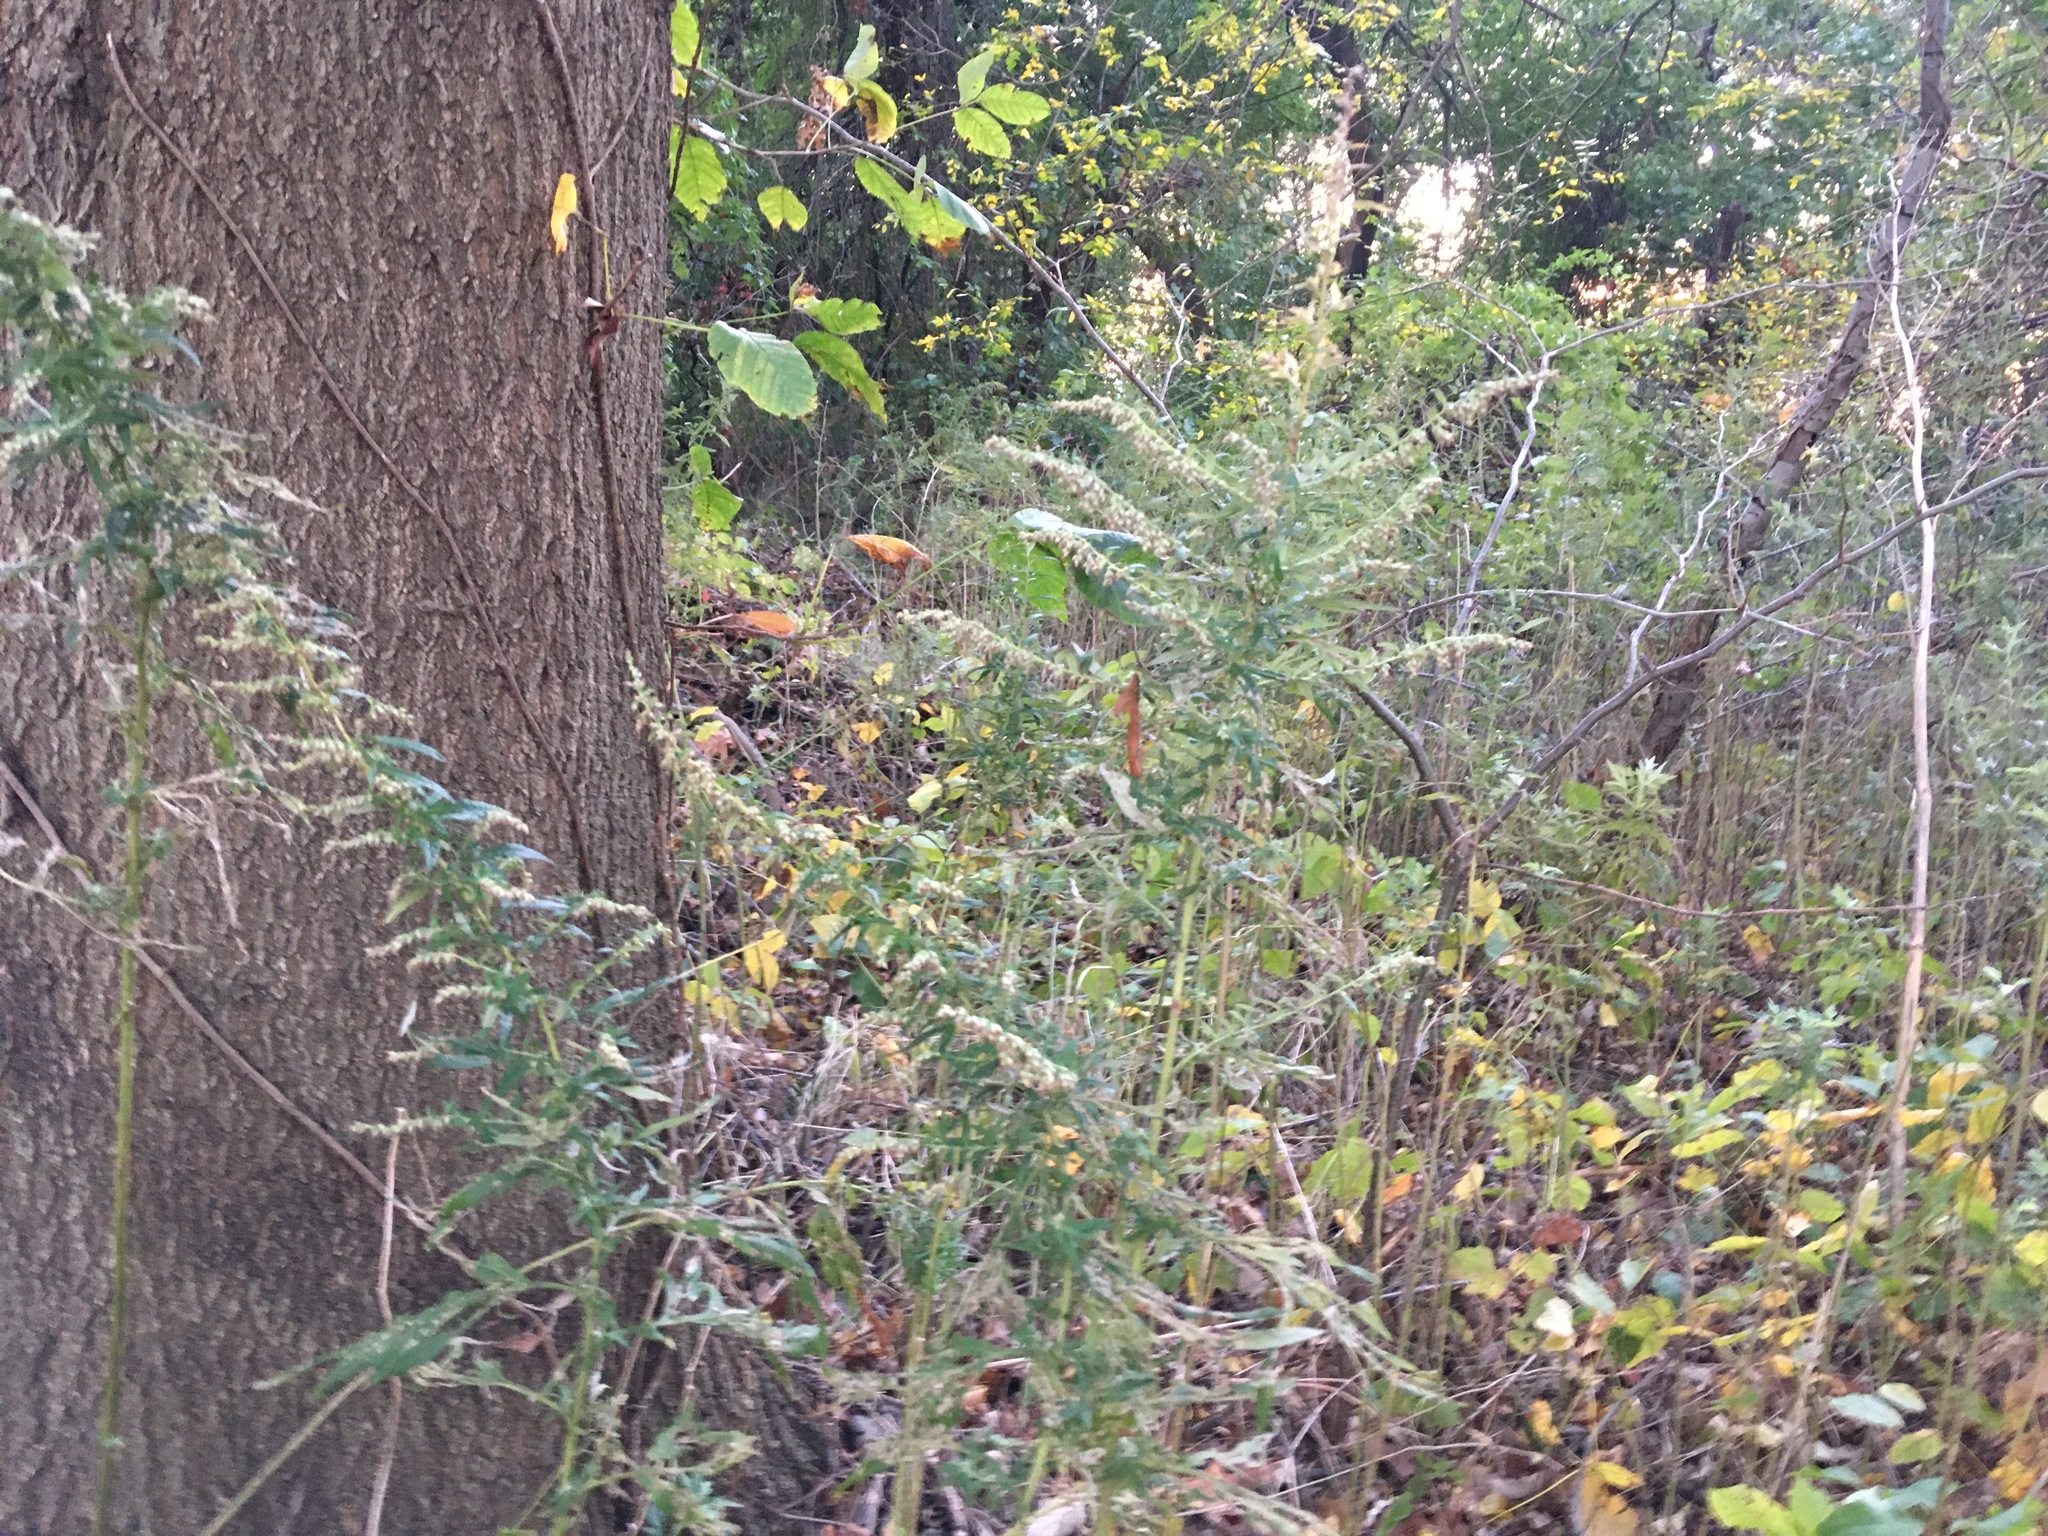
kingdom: Plantae
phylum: Tracheophyta
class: Magnoliopsida
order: Asterales
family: Asteraceae
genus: Artemisia
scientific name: Artemisia vulgaris
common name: Mugwort
